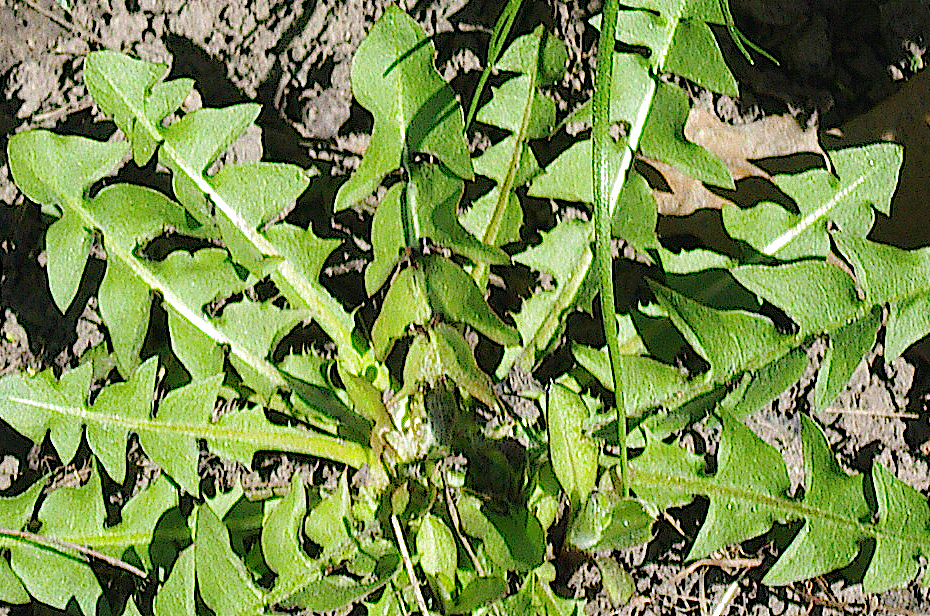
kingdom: Plantae
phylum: Tracheophyta
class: Magnoliopsida
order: Asterales
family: Asteraceae
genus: Taraxacum
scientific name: Taraxacum officinale
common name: Common dandelion
